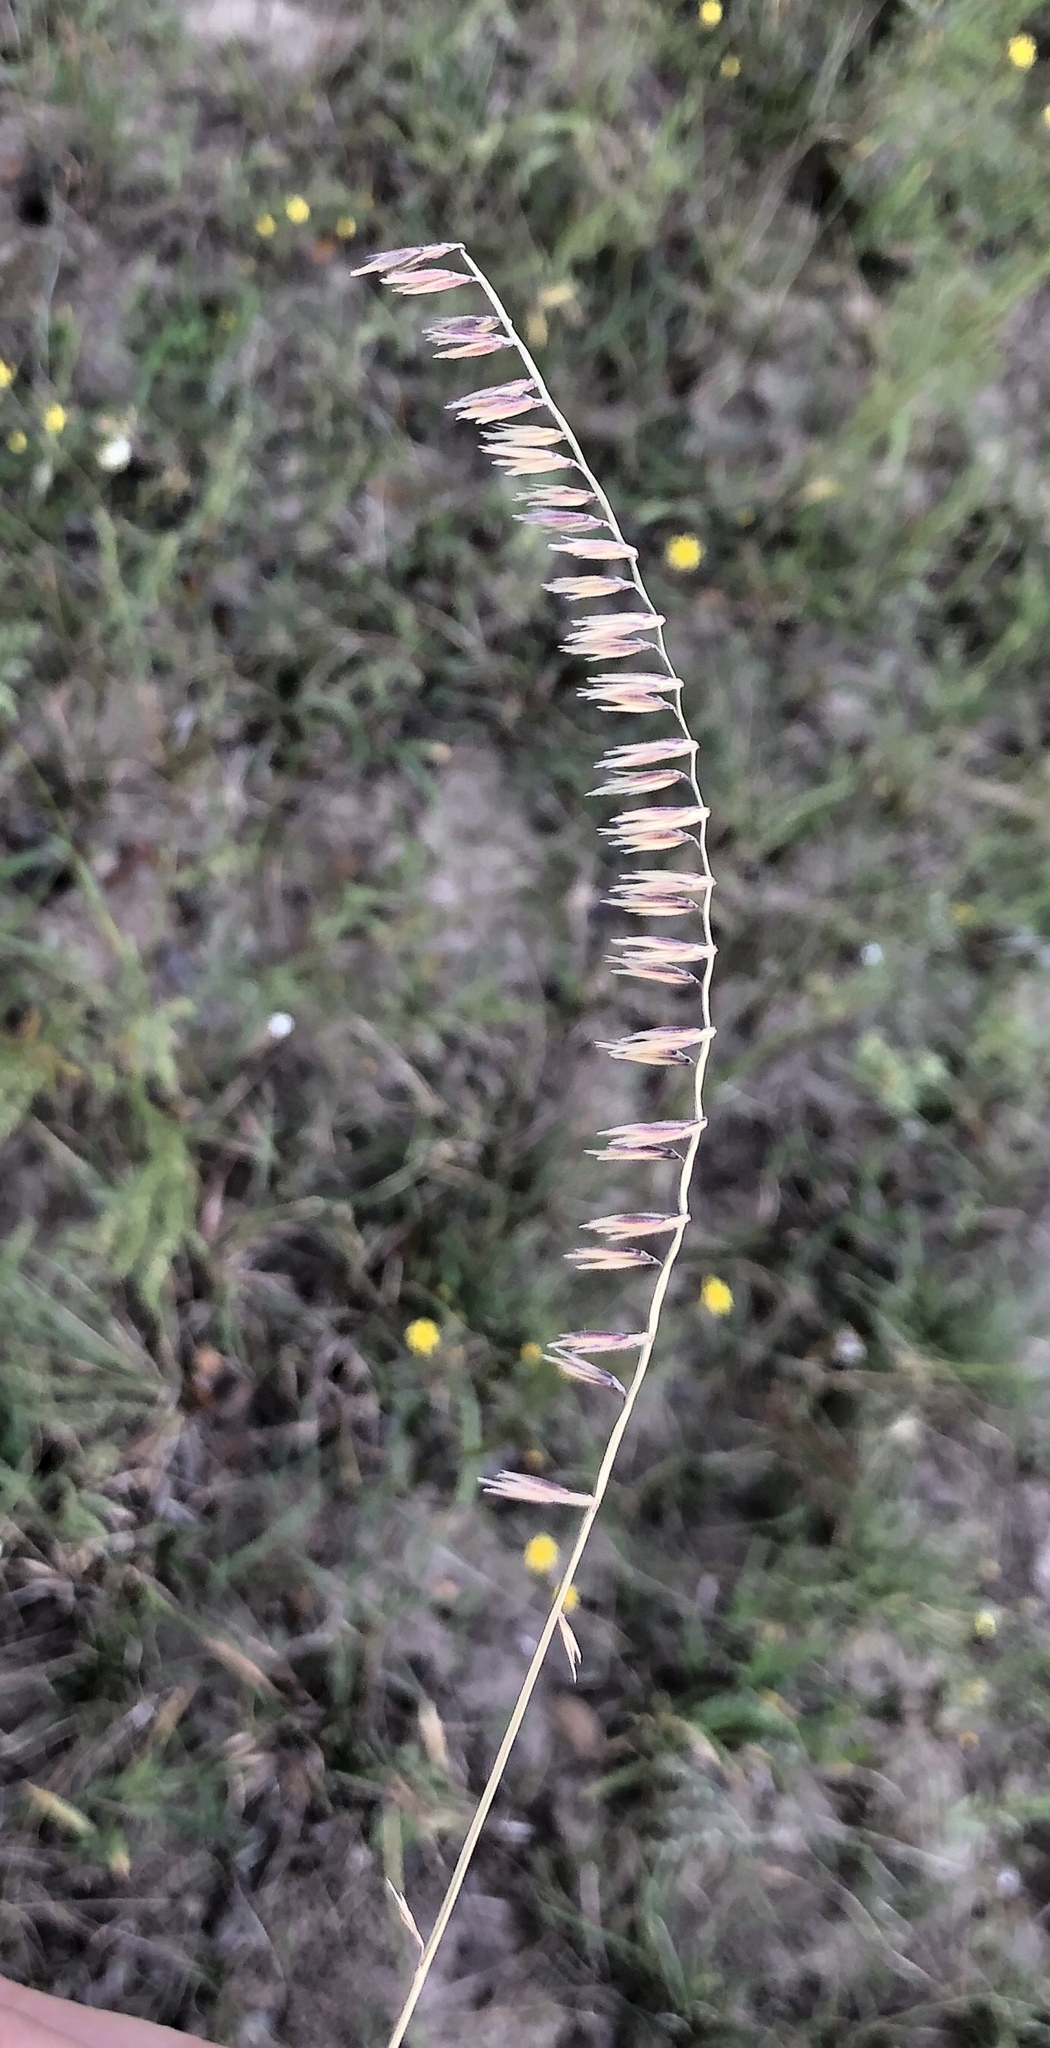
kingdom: Plantae
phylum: Tracheophyta
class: Liliopsida
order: Poales
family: Poaceae
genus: Bouteloua
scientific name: Bouteloua curtipendula
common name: Side-oats grama
